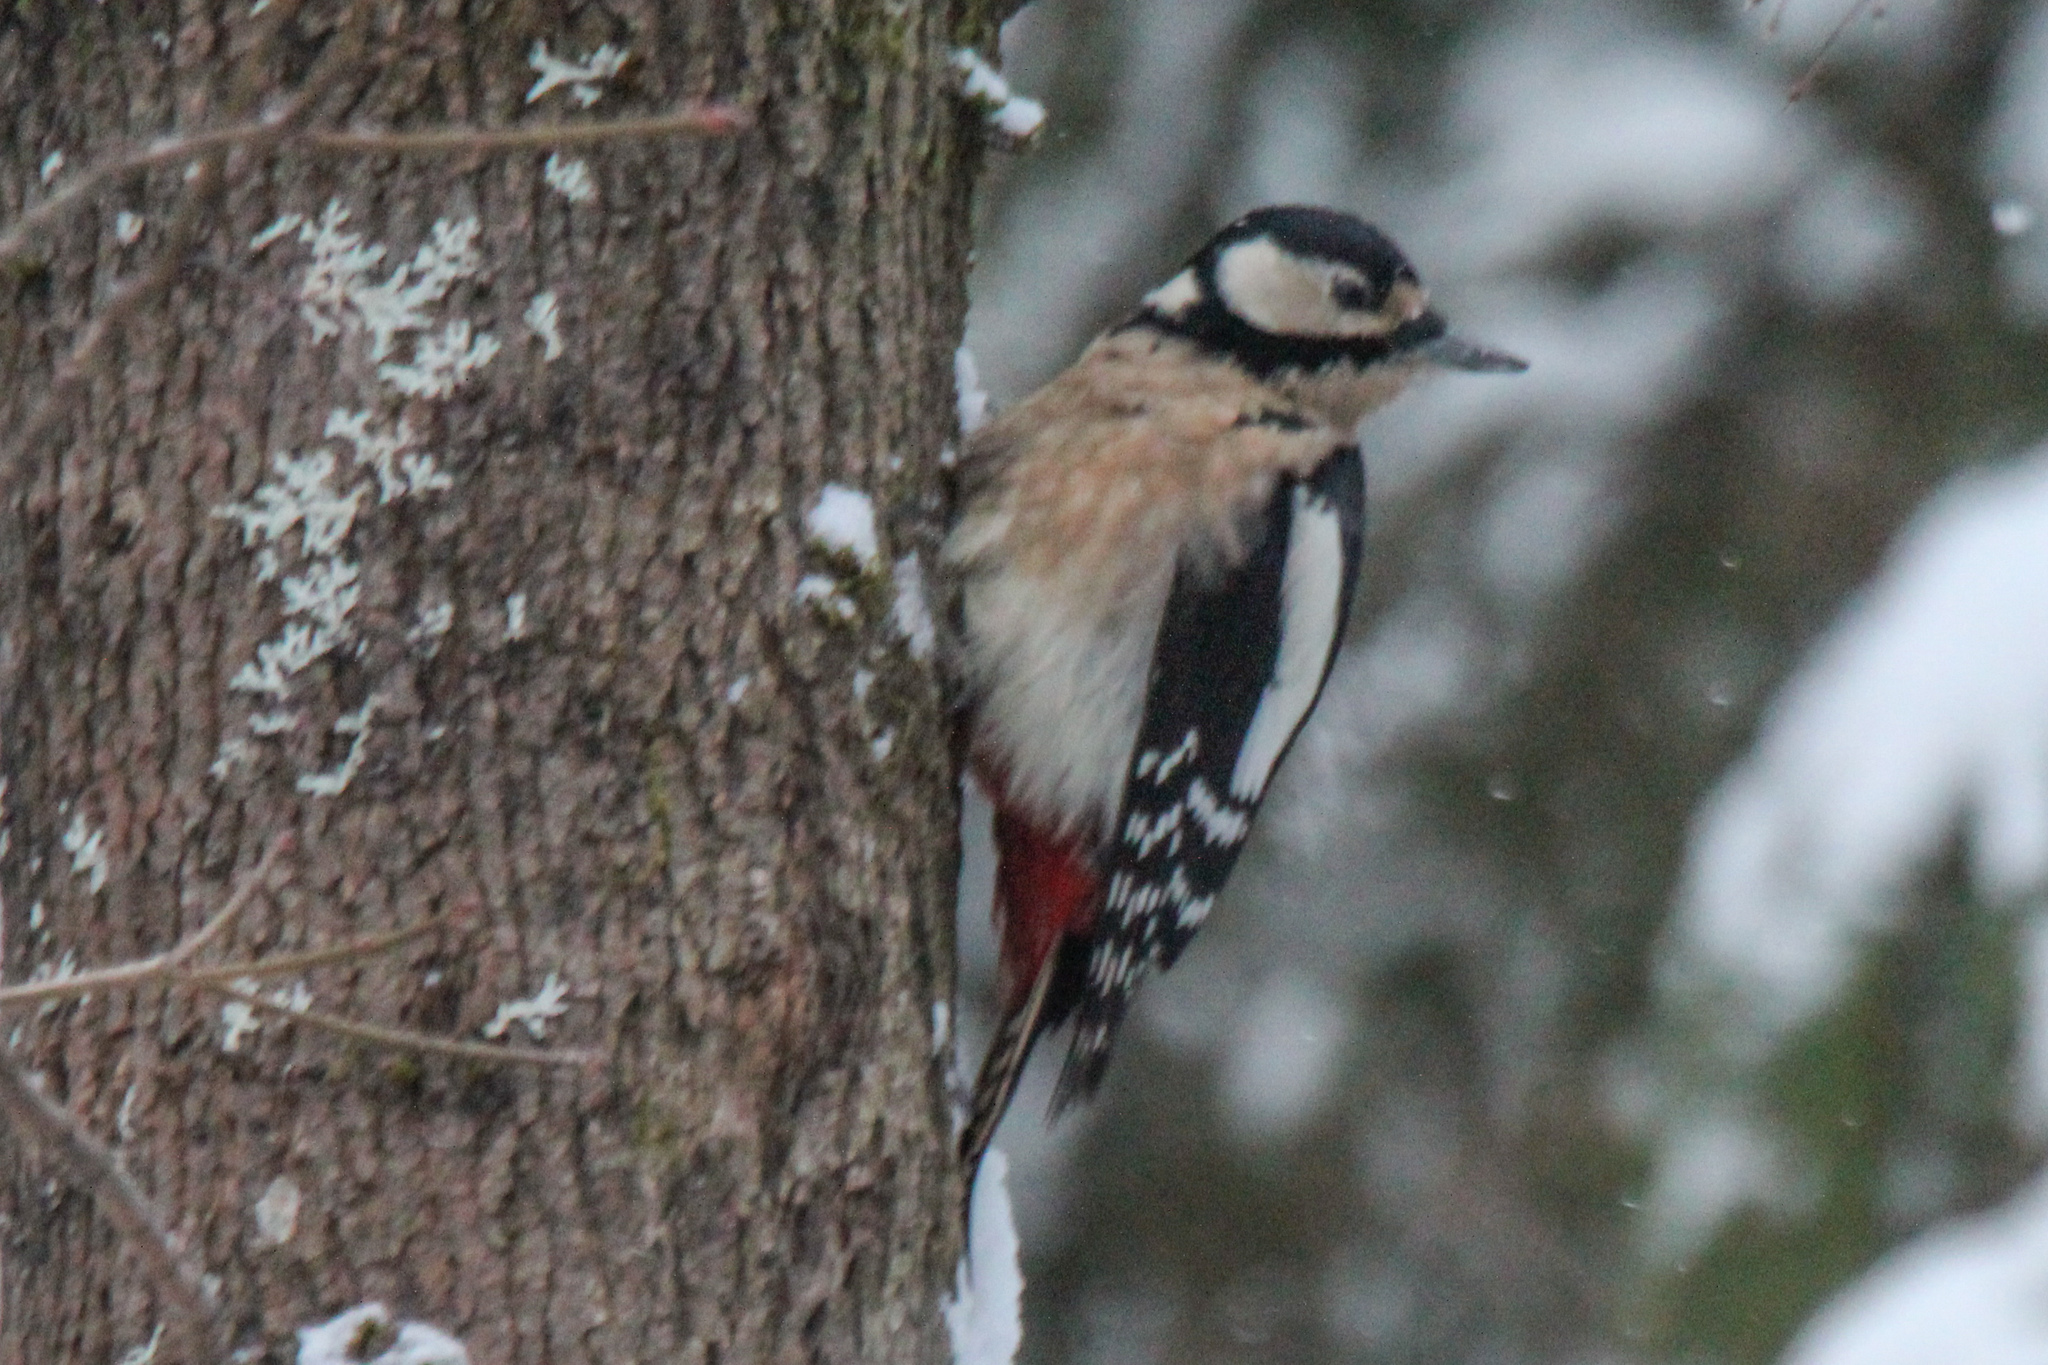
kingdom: Animalia
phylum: Chordata
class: Aves
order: Piciformes
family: Picidae
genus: Dendrocopos
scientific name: Dendrocopos major
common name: Great spotted woodpecker
